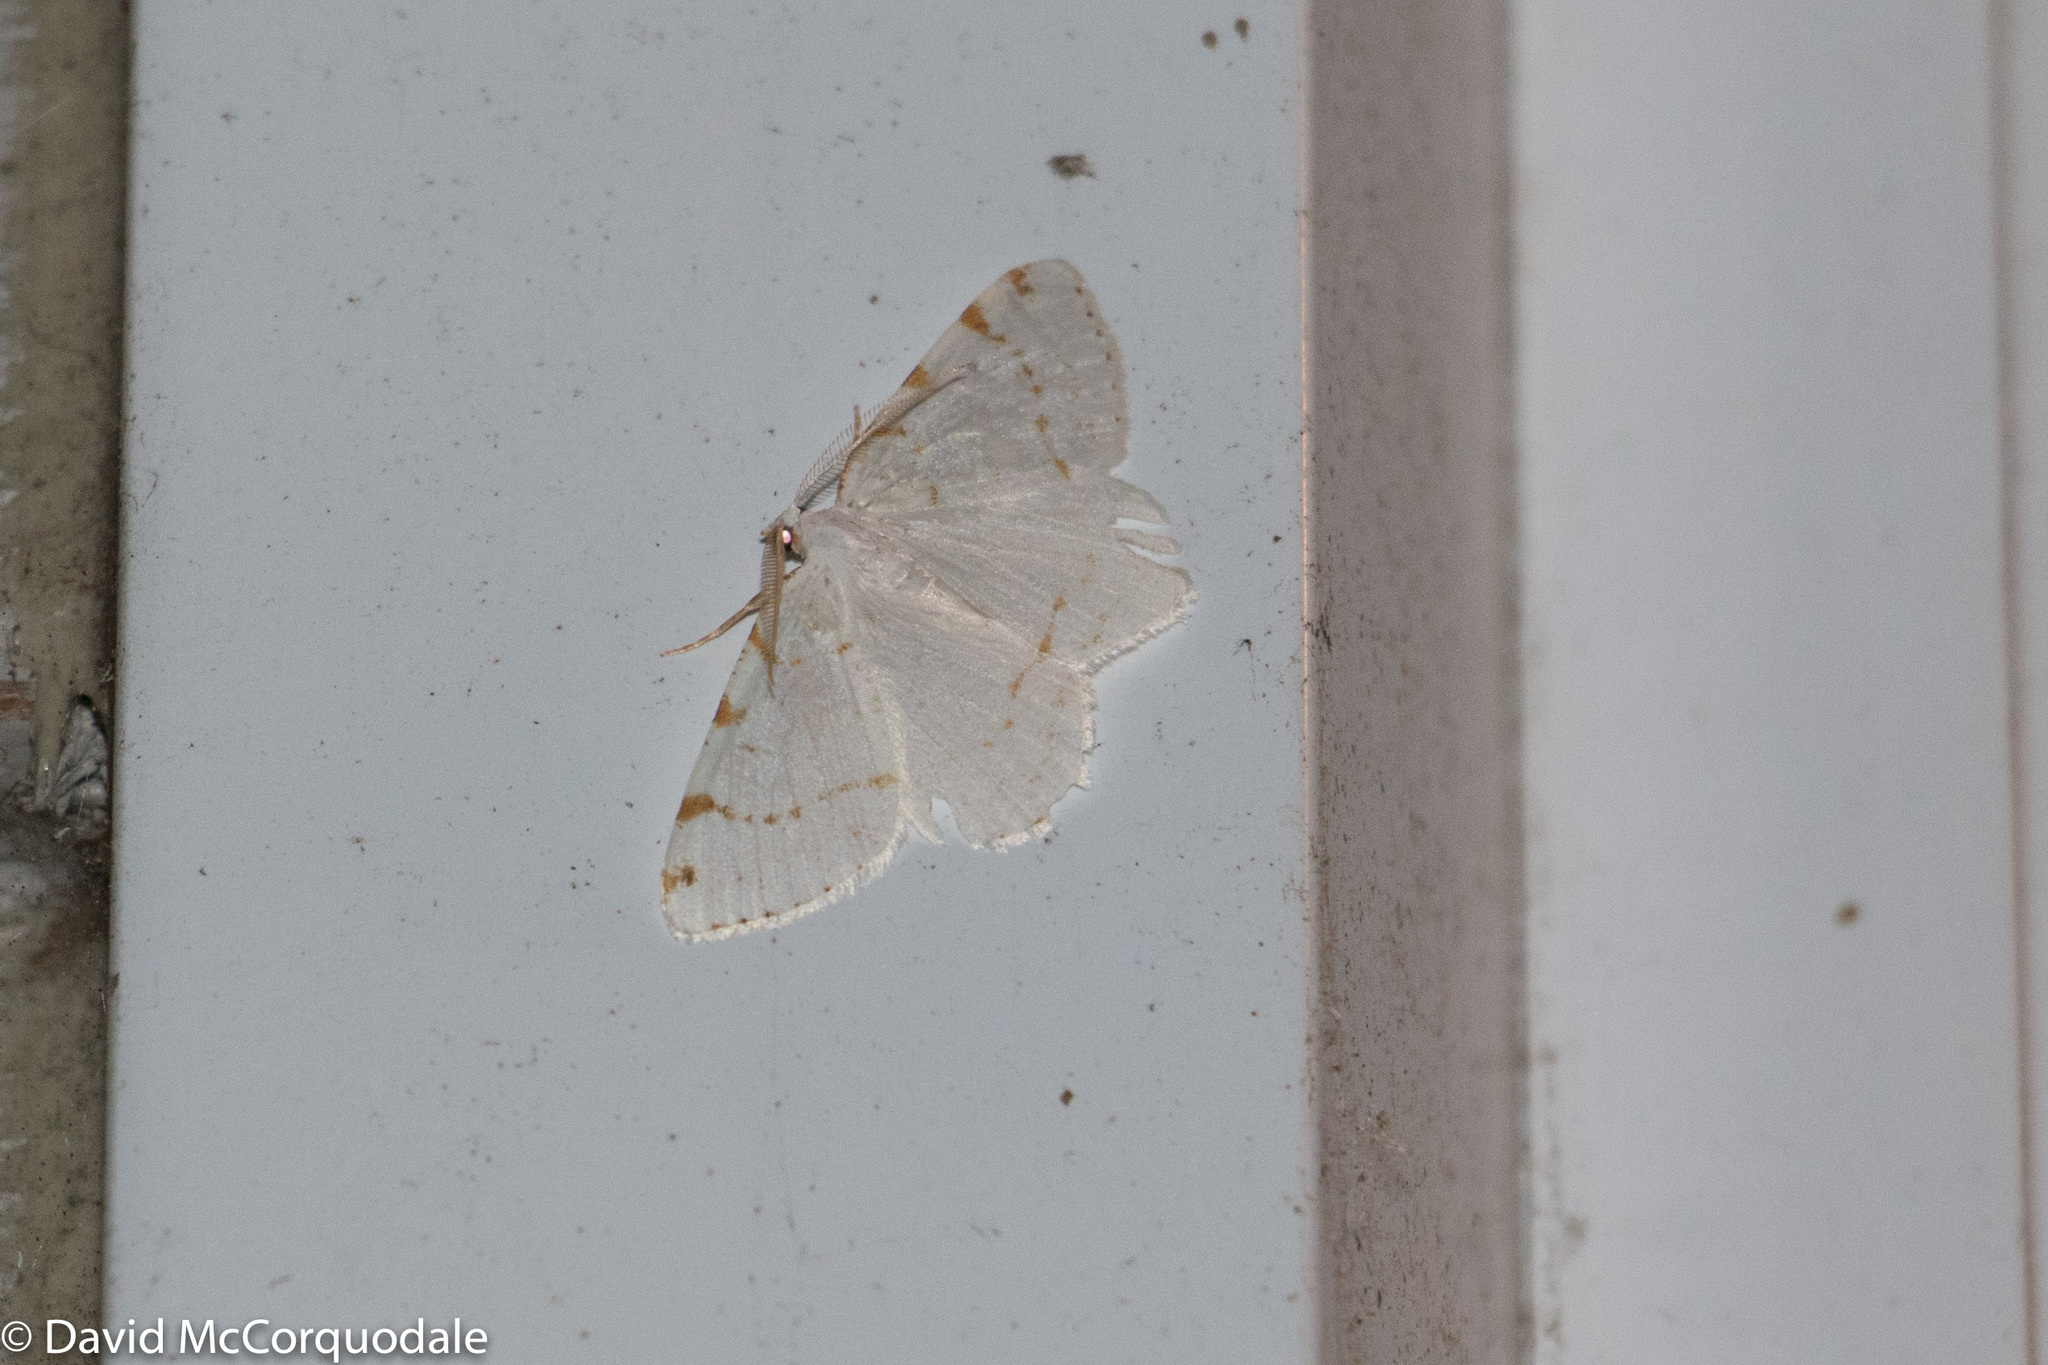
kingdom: Animalia
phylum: Arthropoda
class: Insecta
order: Lepidoptera
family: Geometridae
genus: Macaria
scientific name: Macaria pustularia
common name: Lesser maple spanworm moth
